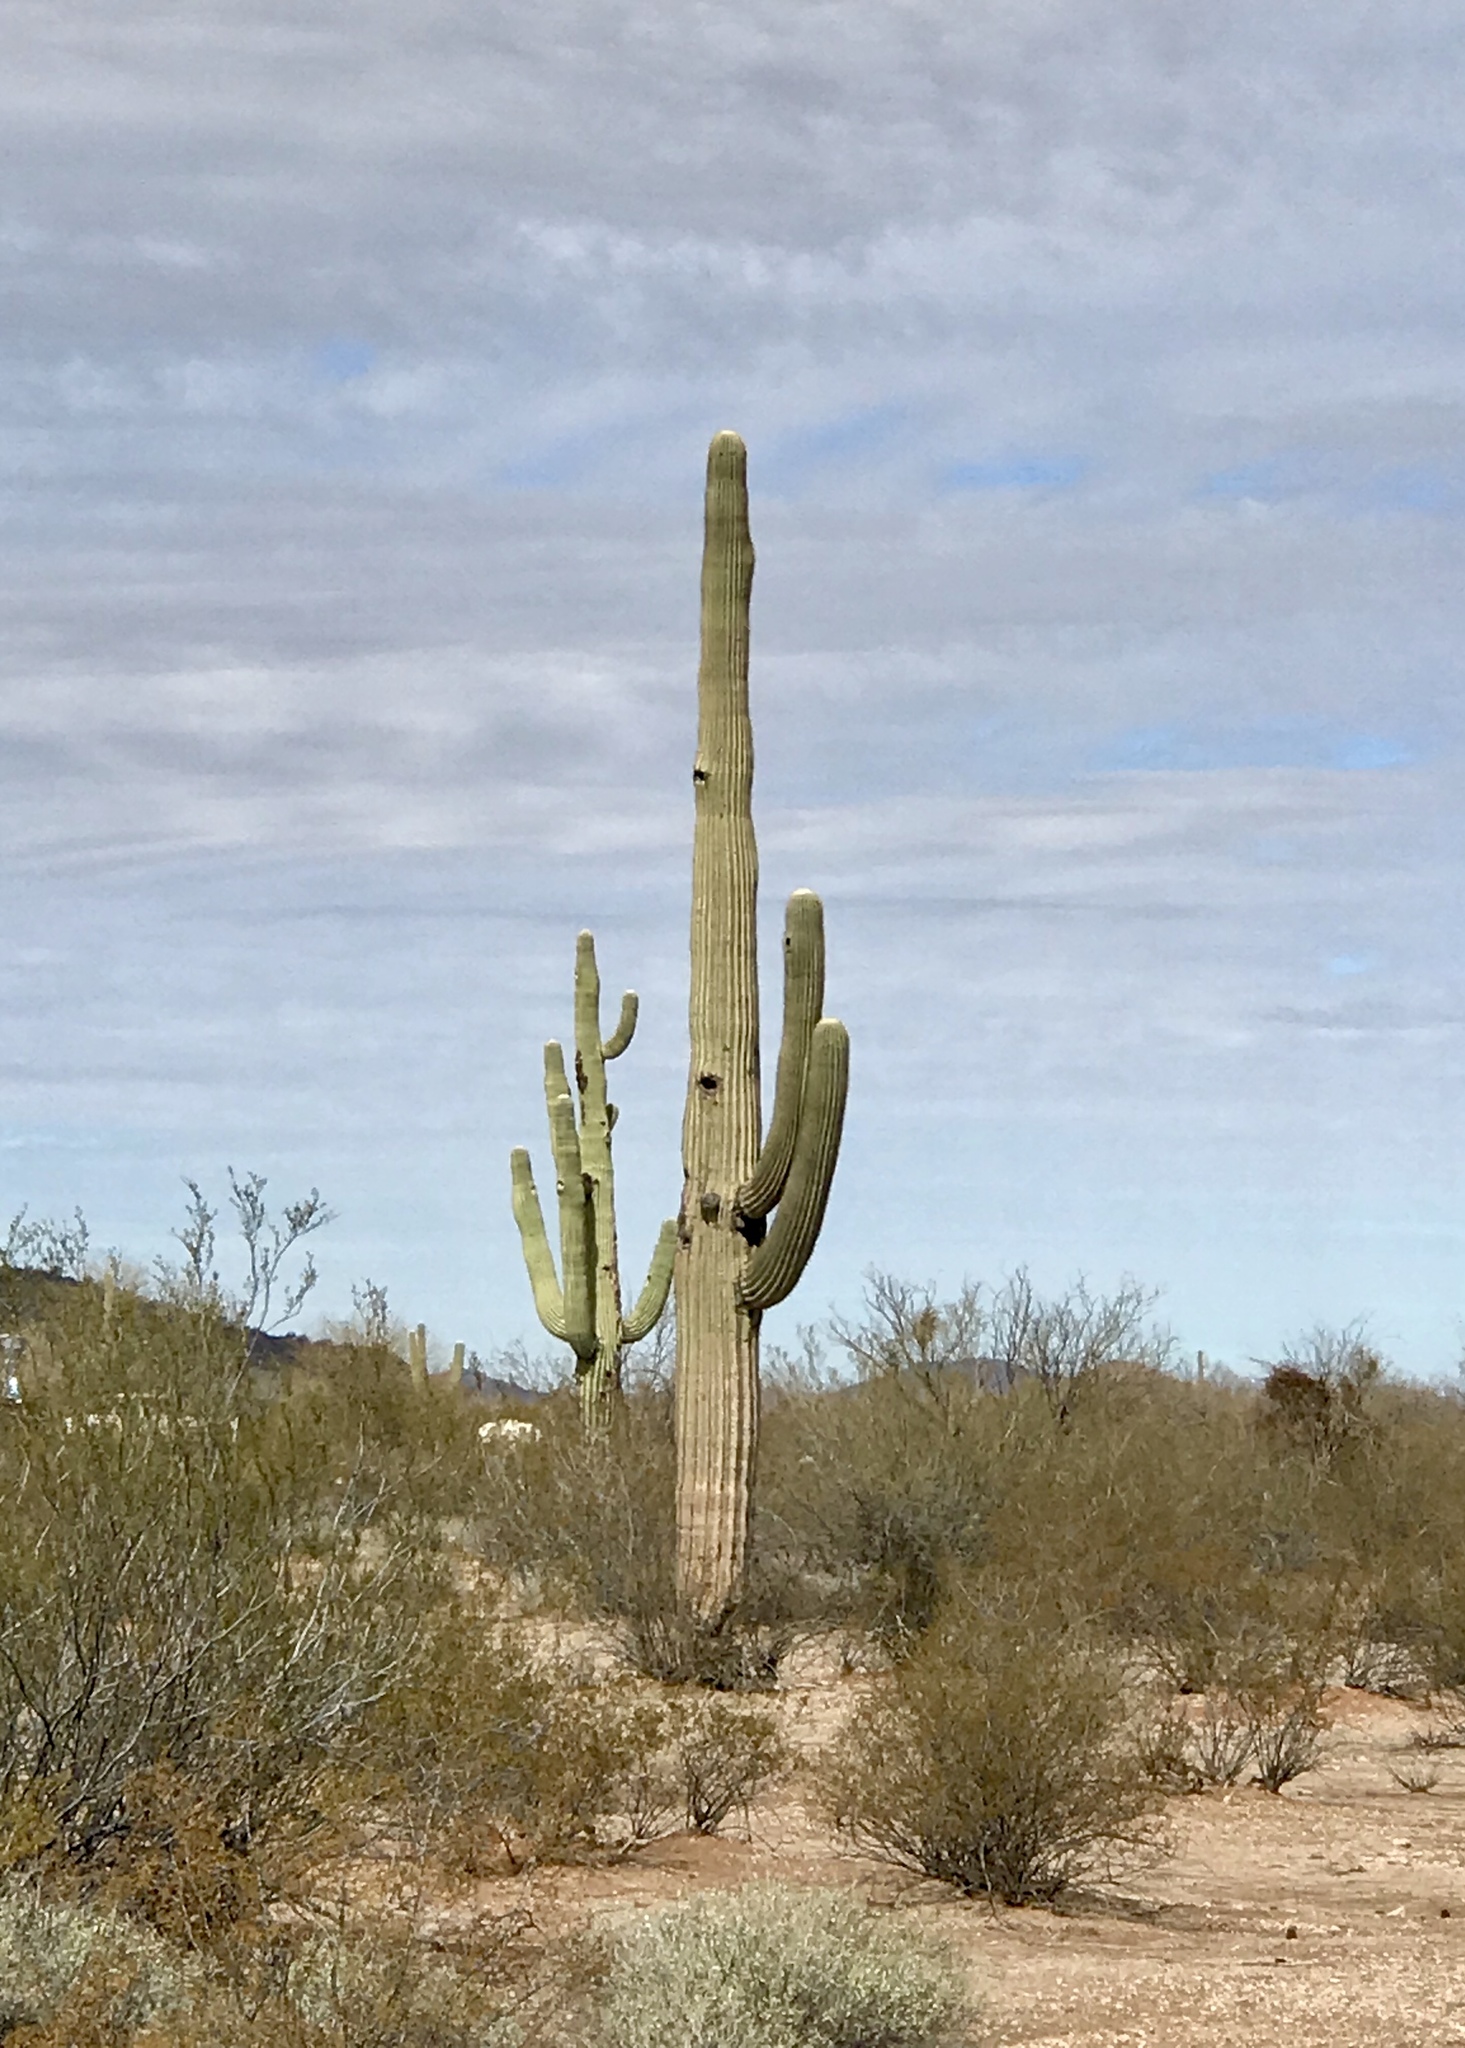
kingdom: Plantae
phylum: Tracheophyta
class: Magnoliopsida
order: Caryophyllales
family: Cactaceae
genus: Carnegiea
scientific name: Carnegiea gigantea
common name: Saguaro
